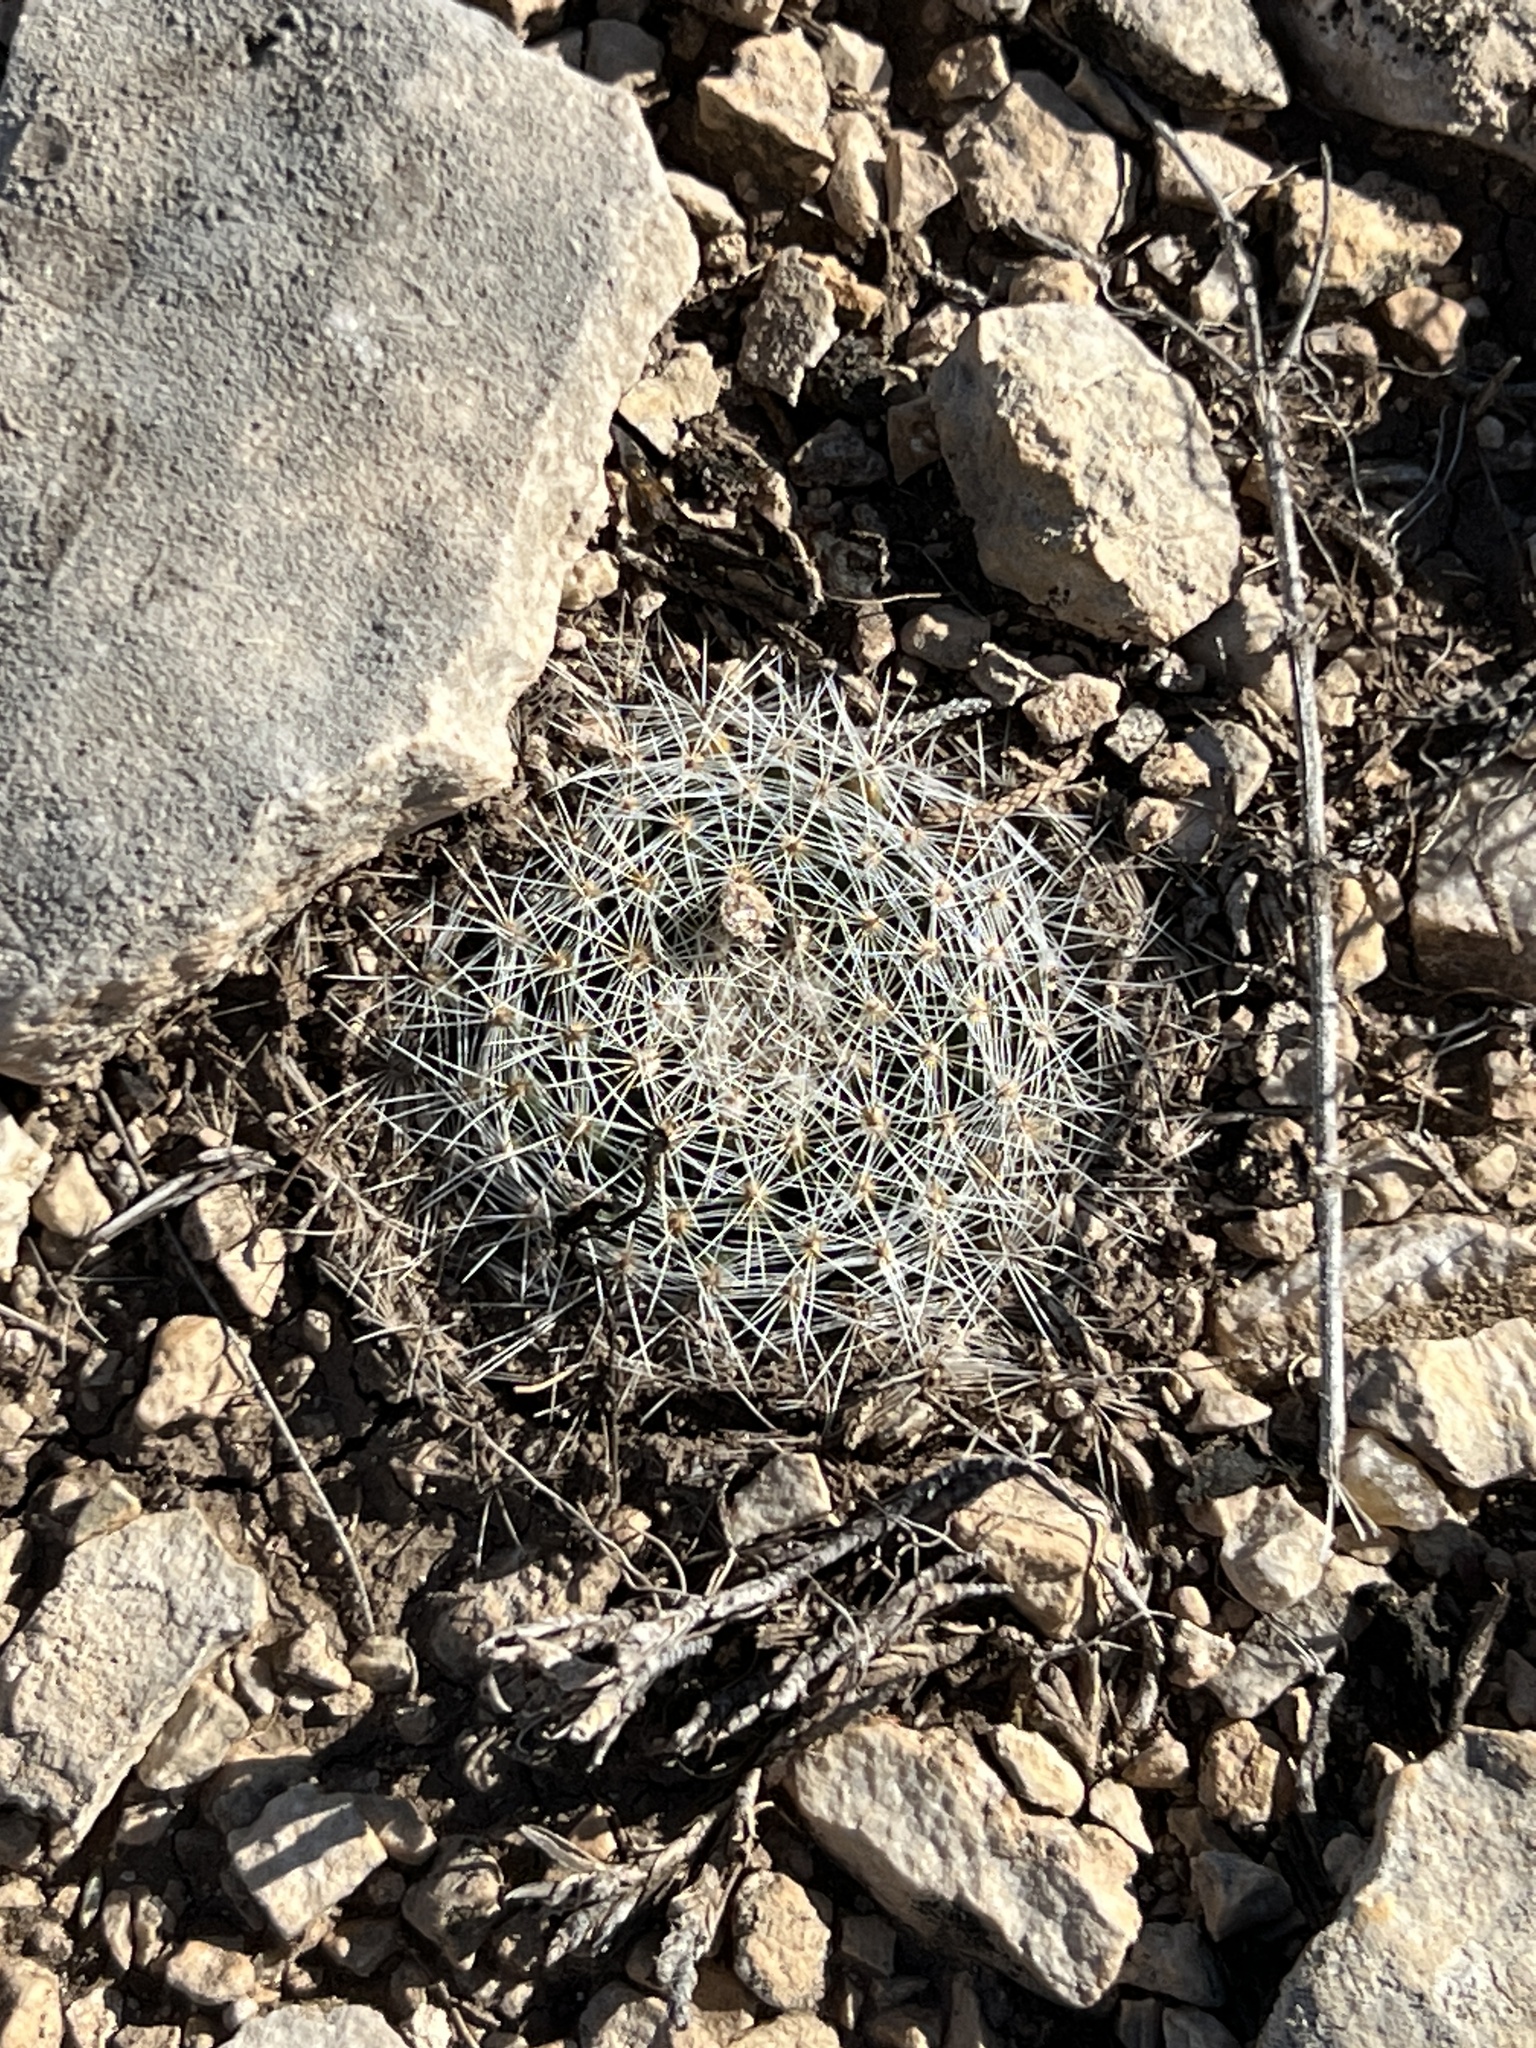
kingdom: Plantae
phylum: Tracheophyta
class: Magnoliopsida
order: Caryophyllales
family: Cactaceae
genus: Mammillaria
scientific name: Mammillaria heyderi
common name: Little nipple cactus
